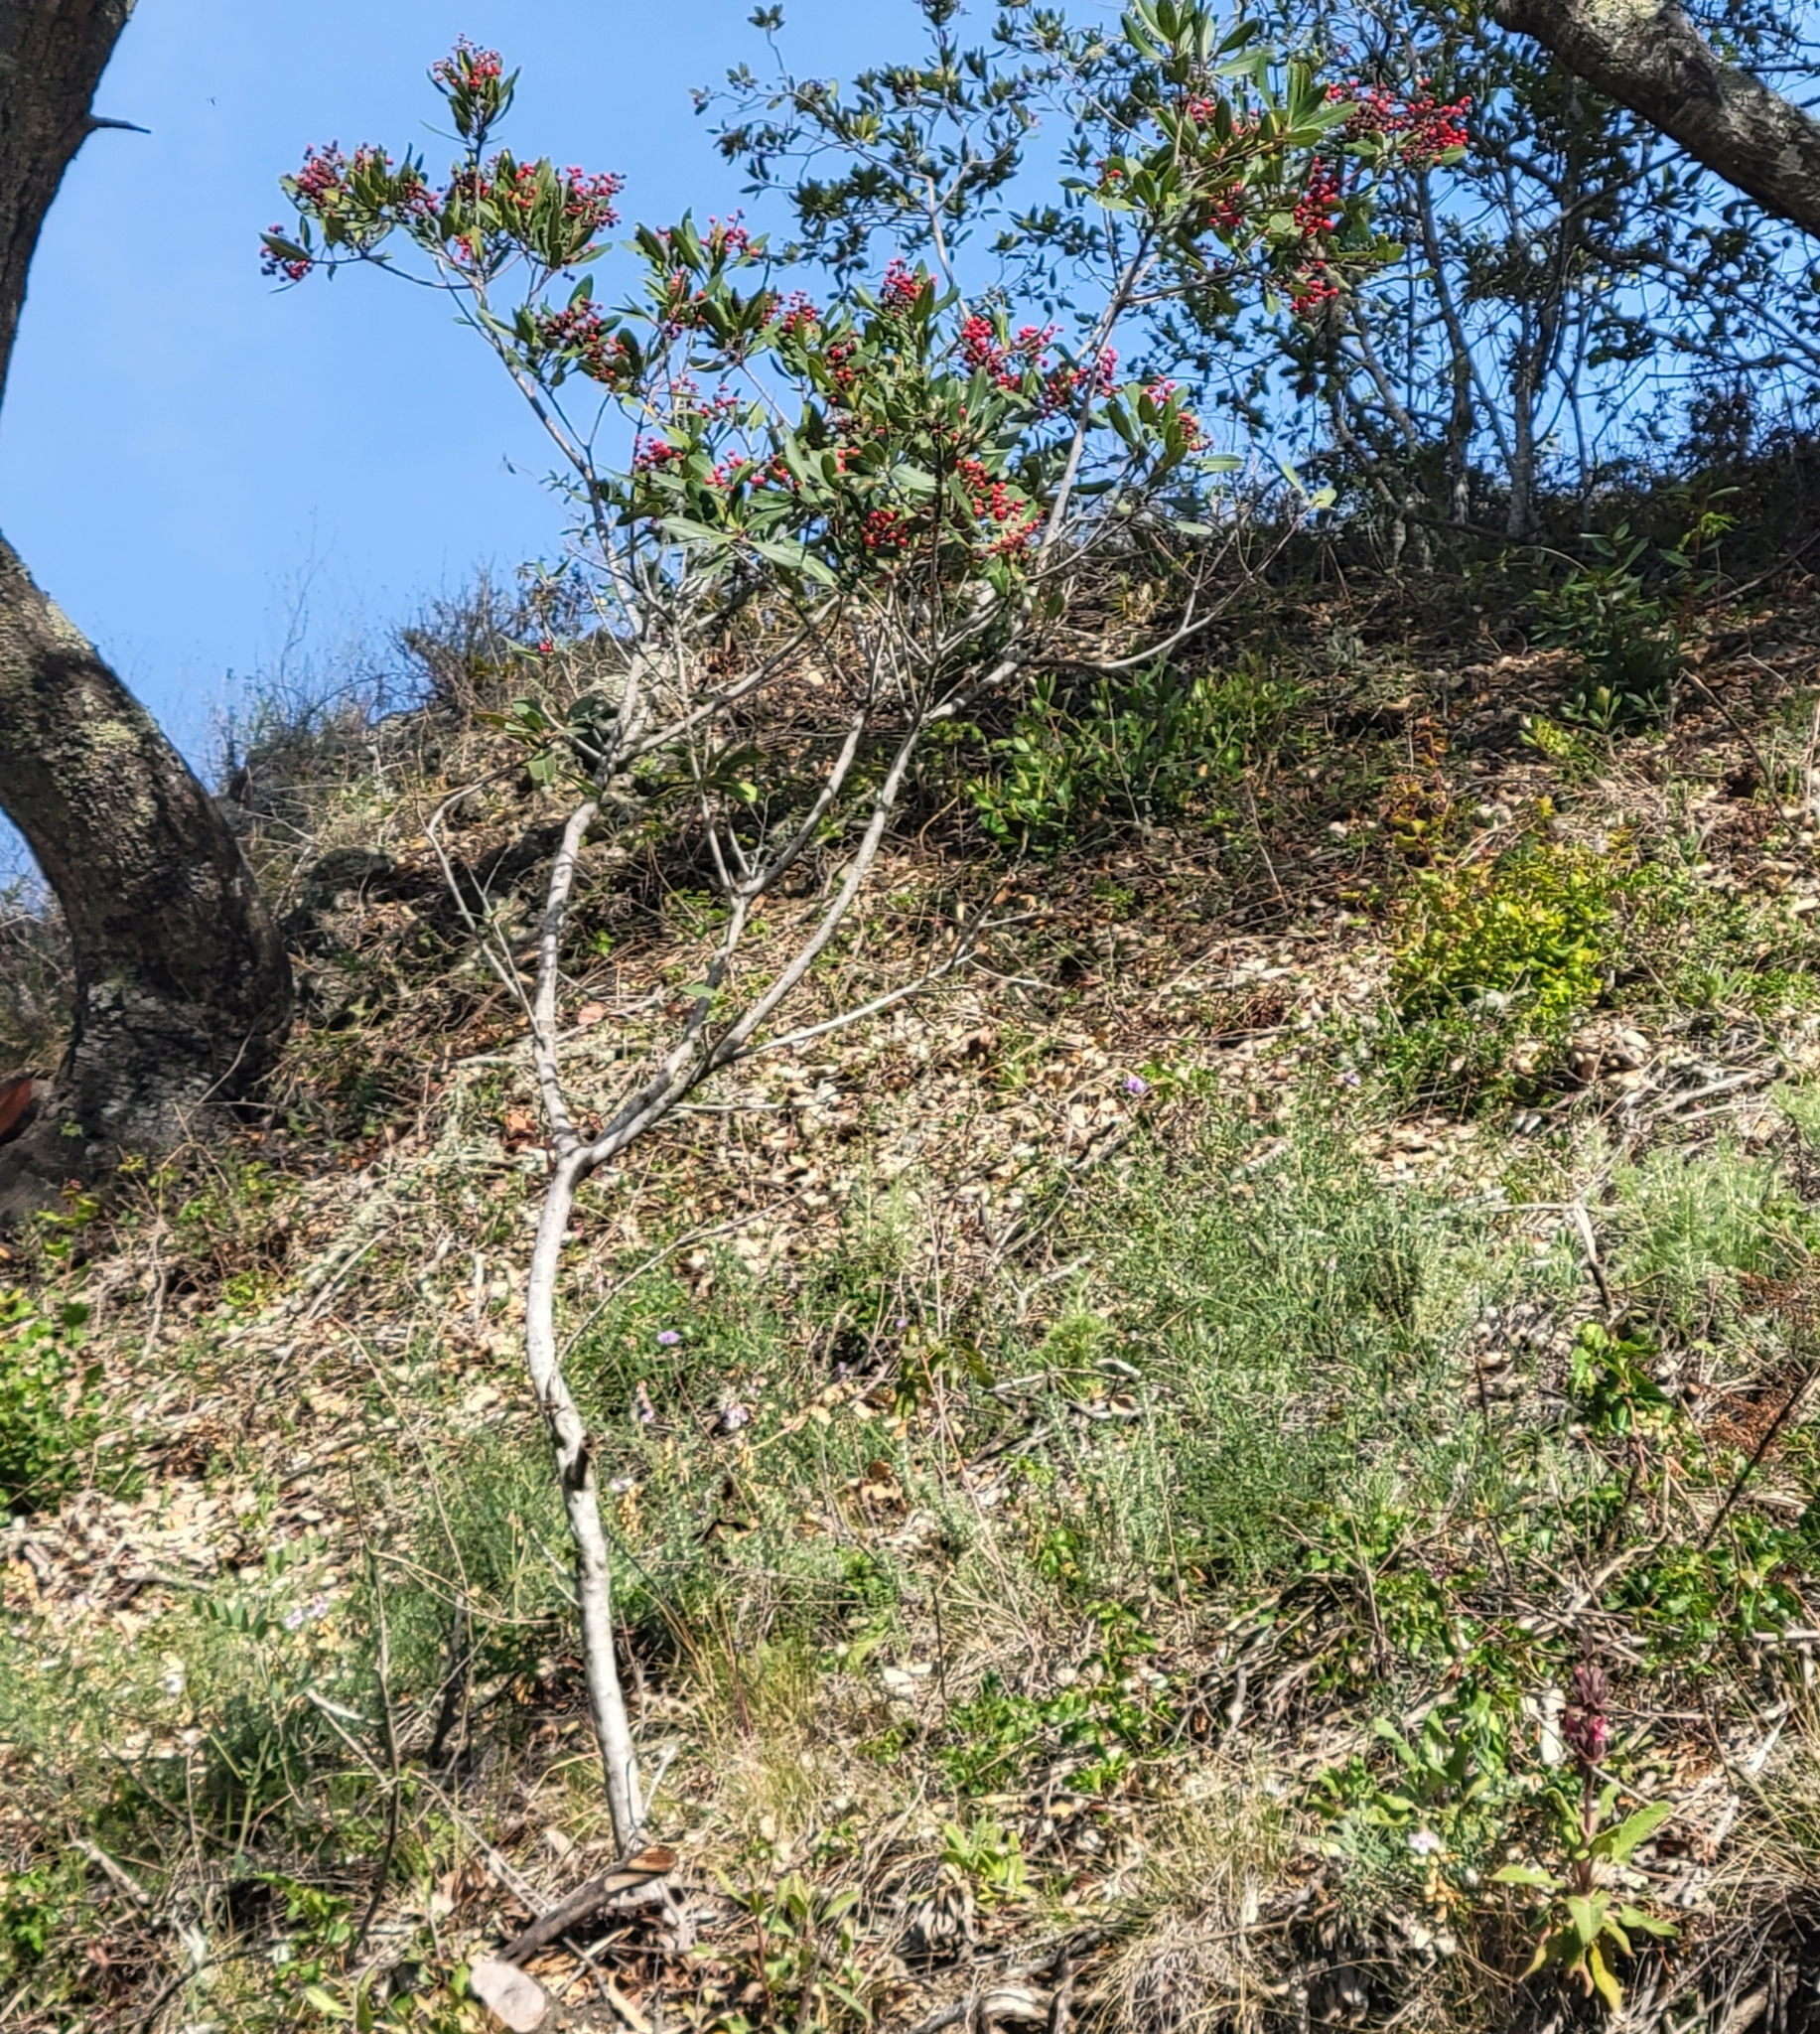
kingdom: Plantae
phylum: Tracheophyta
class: Magnoliopsida
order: Rosales
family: Rosaceae
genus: Heteromeles
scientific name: Heteromeles arbutifolia
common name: California-holly
